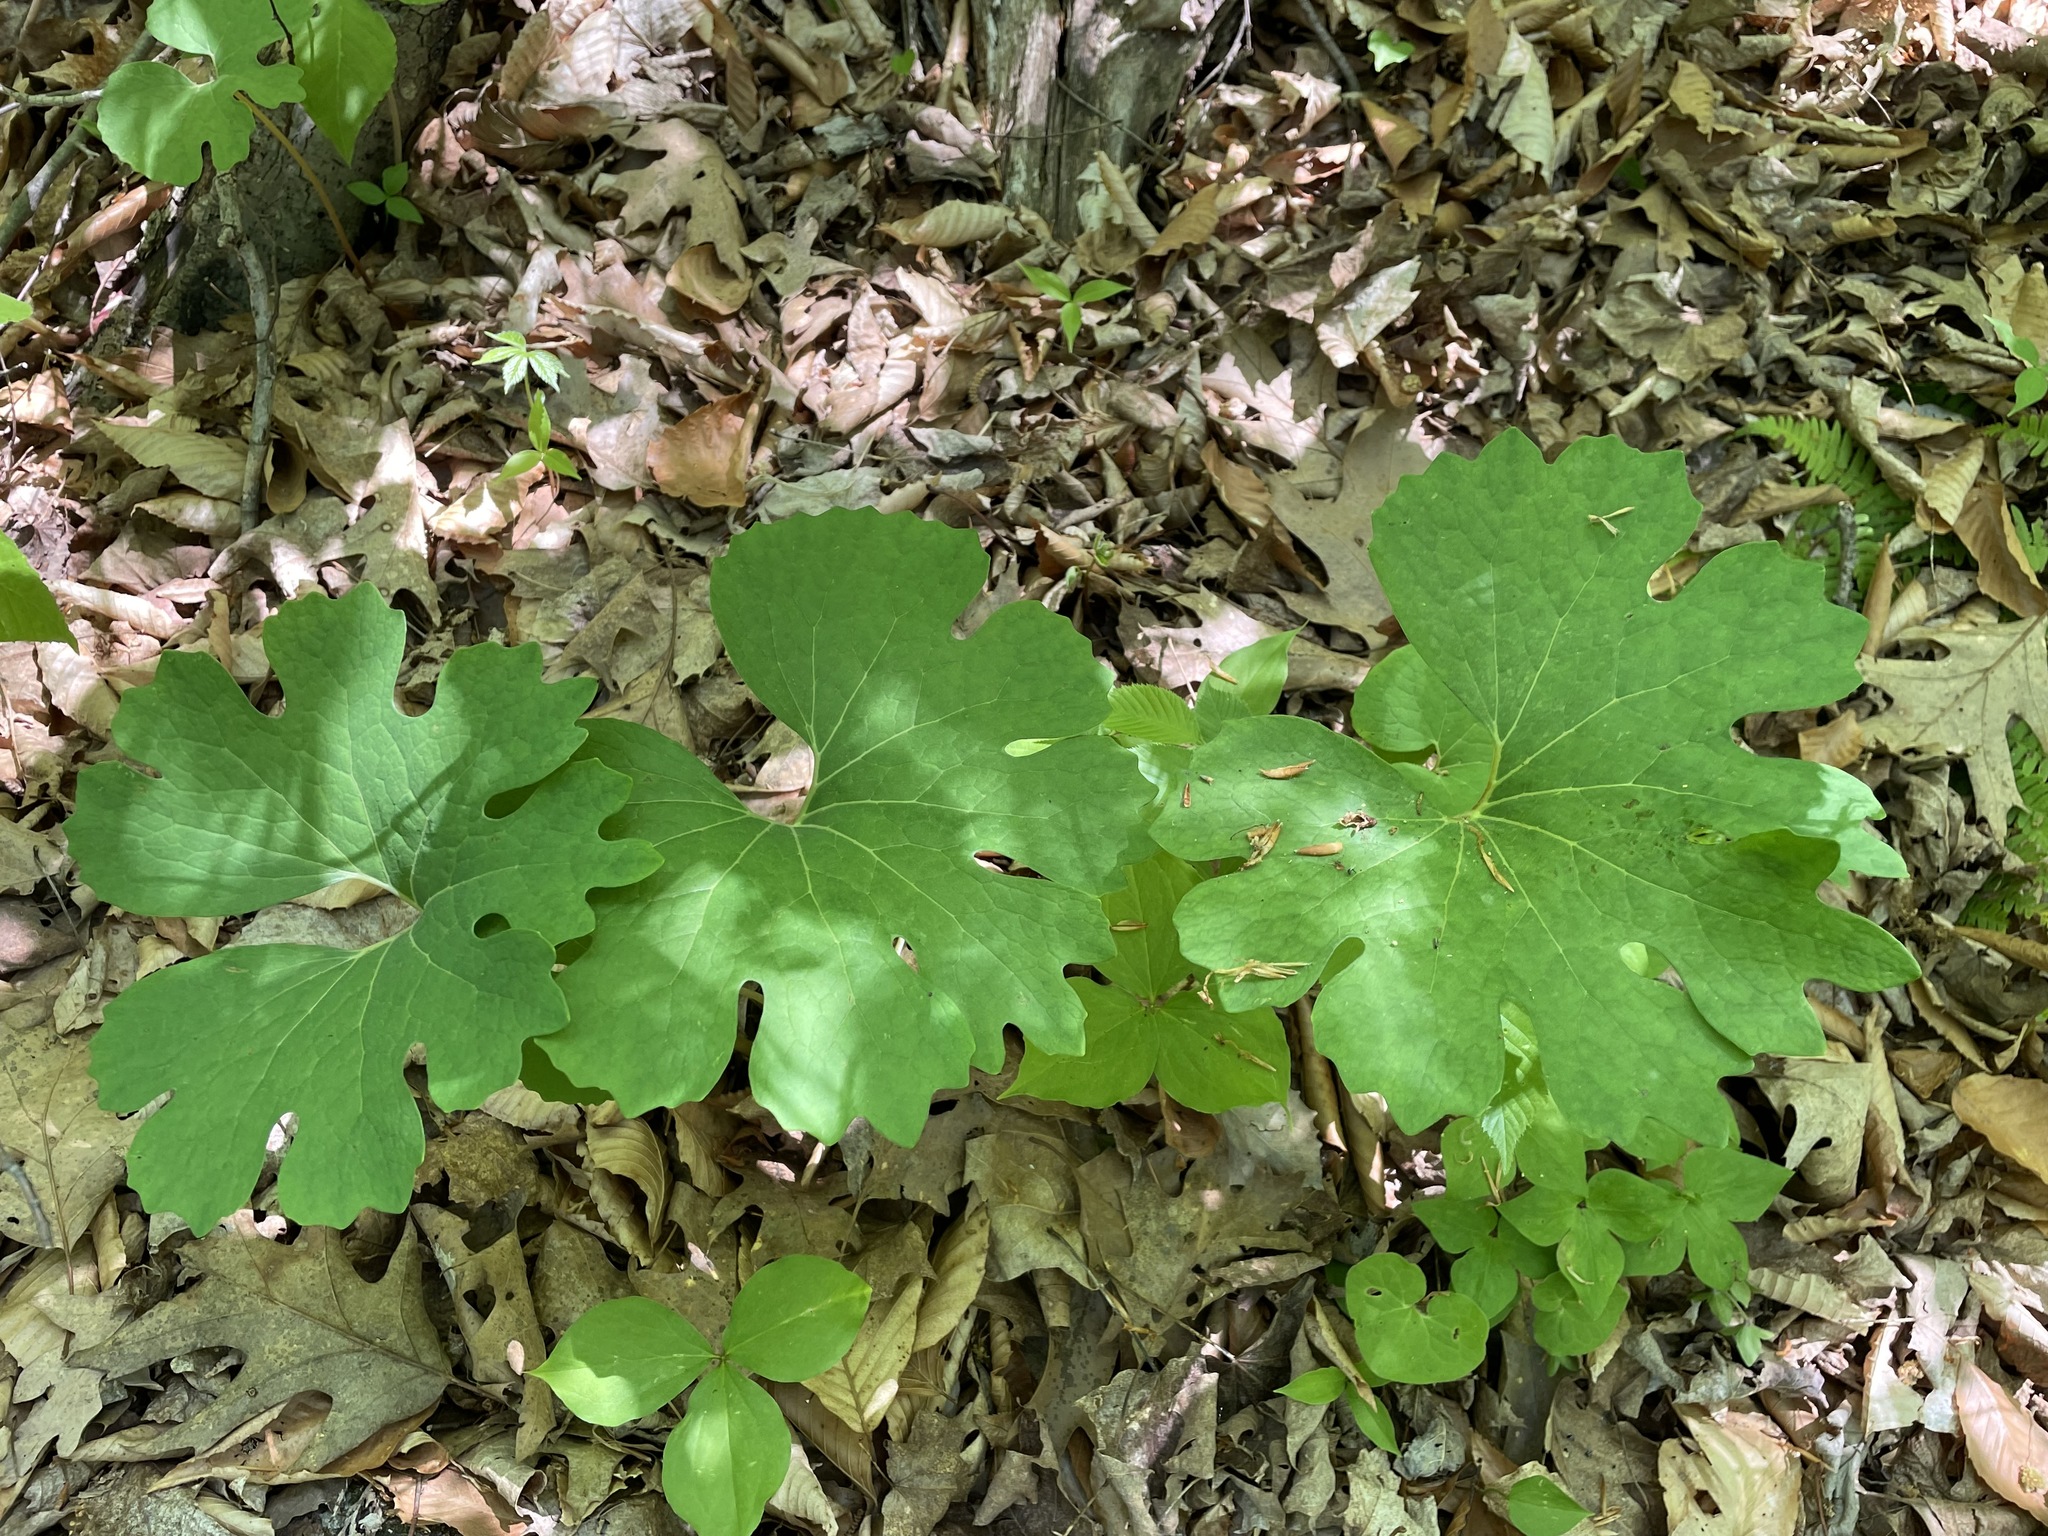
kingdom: Plantae
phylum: Tracheophyta
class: Magnoliopsida
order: Ranunculales
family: Papaveraceae
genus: Sanguinaria
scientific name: Sanguinaria canadensis
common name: Bloodroot
